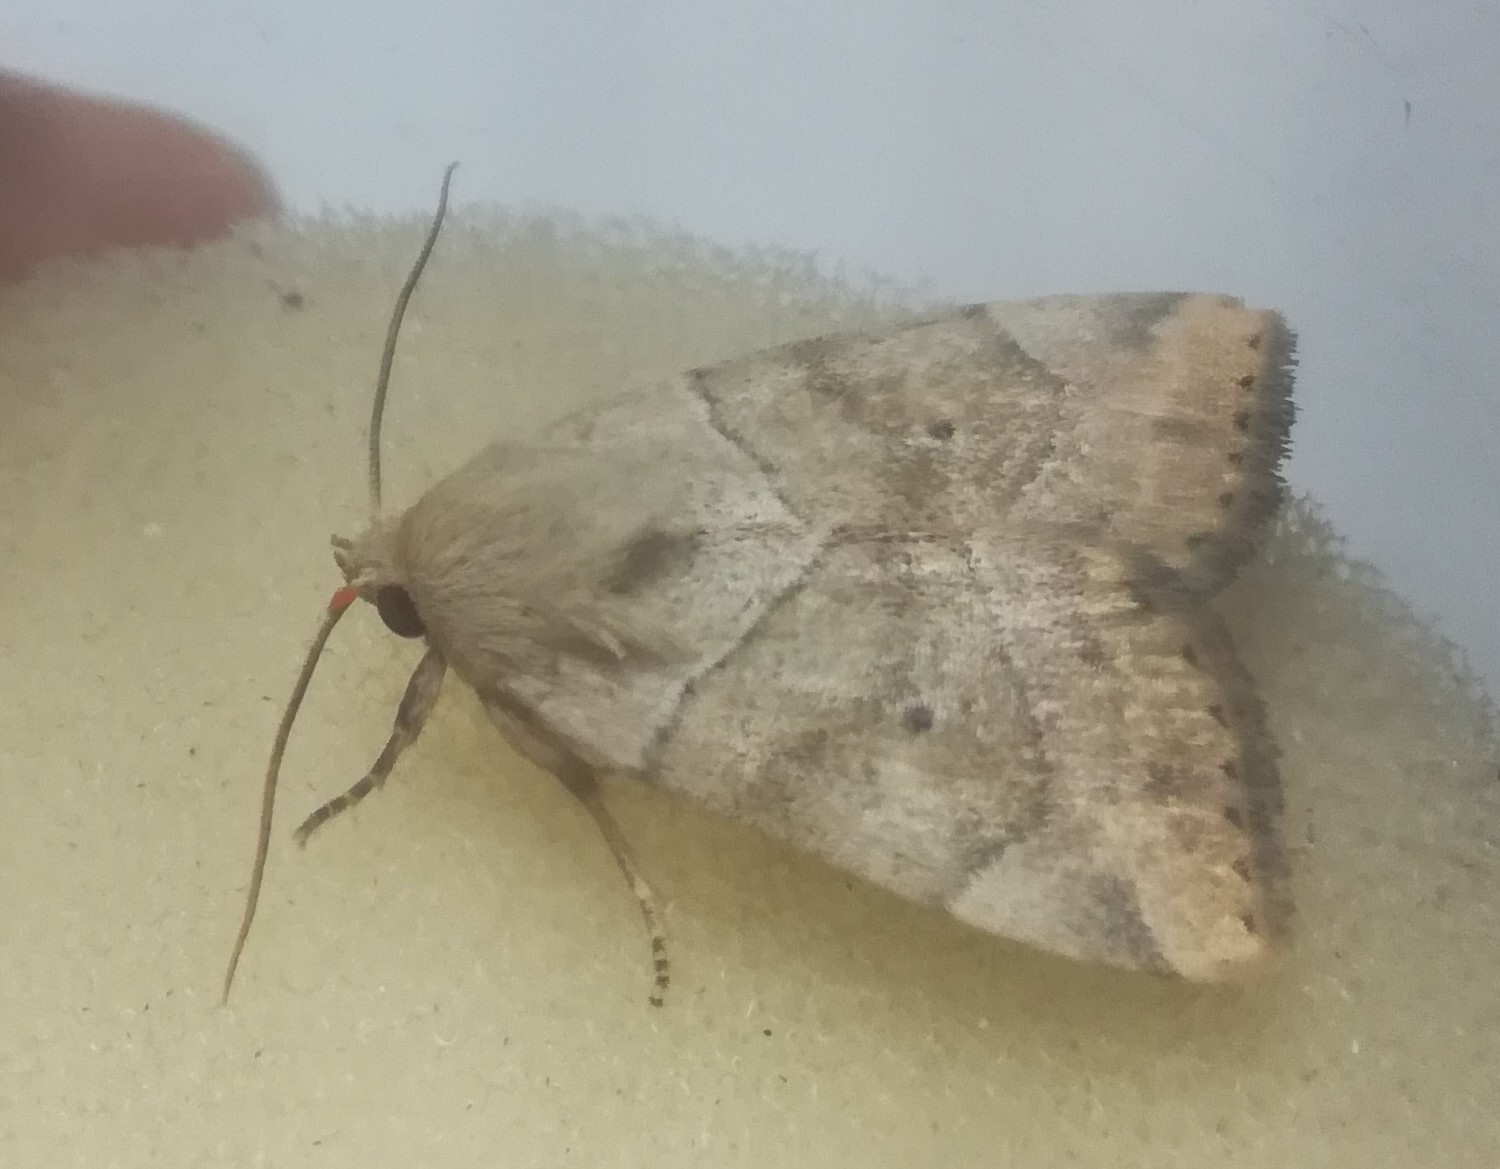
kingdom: Animalia
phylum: Arthropoda
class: Insecta
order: Lepidoptera
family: Noctuidae
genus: Cosmia
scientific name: Cosmia trapezina
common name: Dun-bar
